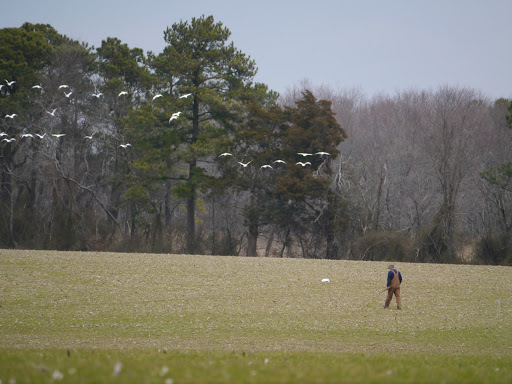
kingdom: Animalia
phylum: Chordata
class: Aves
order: Anseriformes
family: Anatidae
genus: Anser
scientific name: Anser caerulescens
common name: Snow goose
